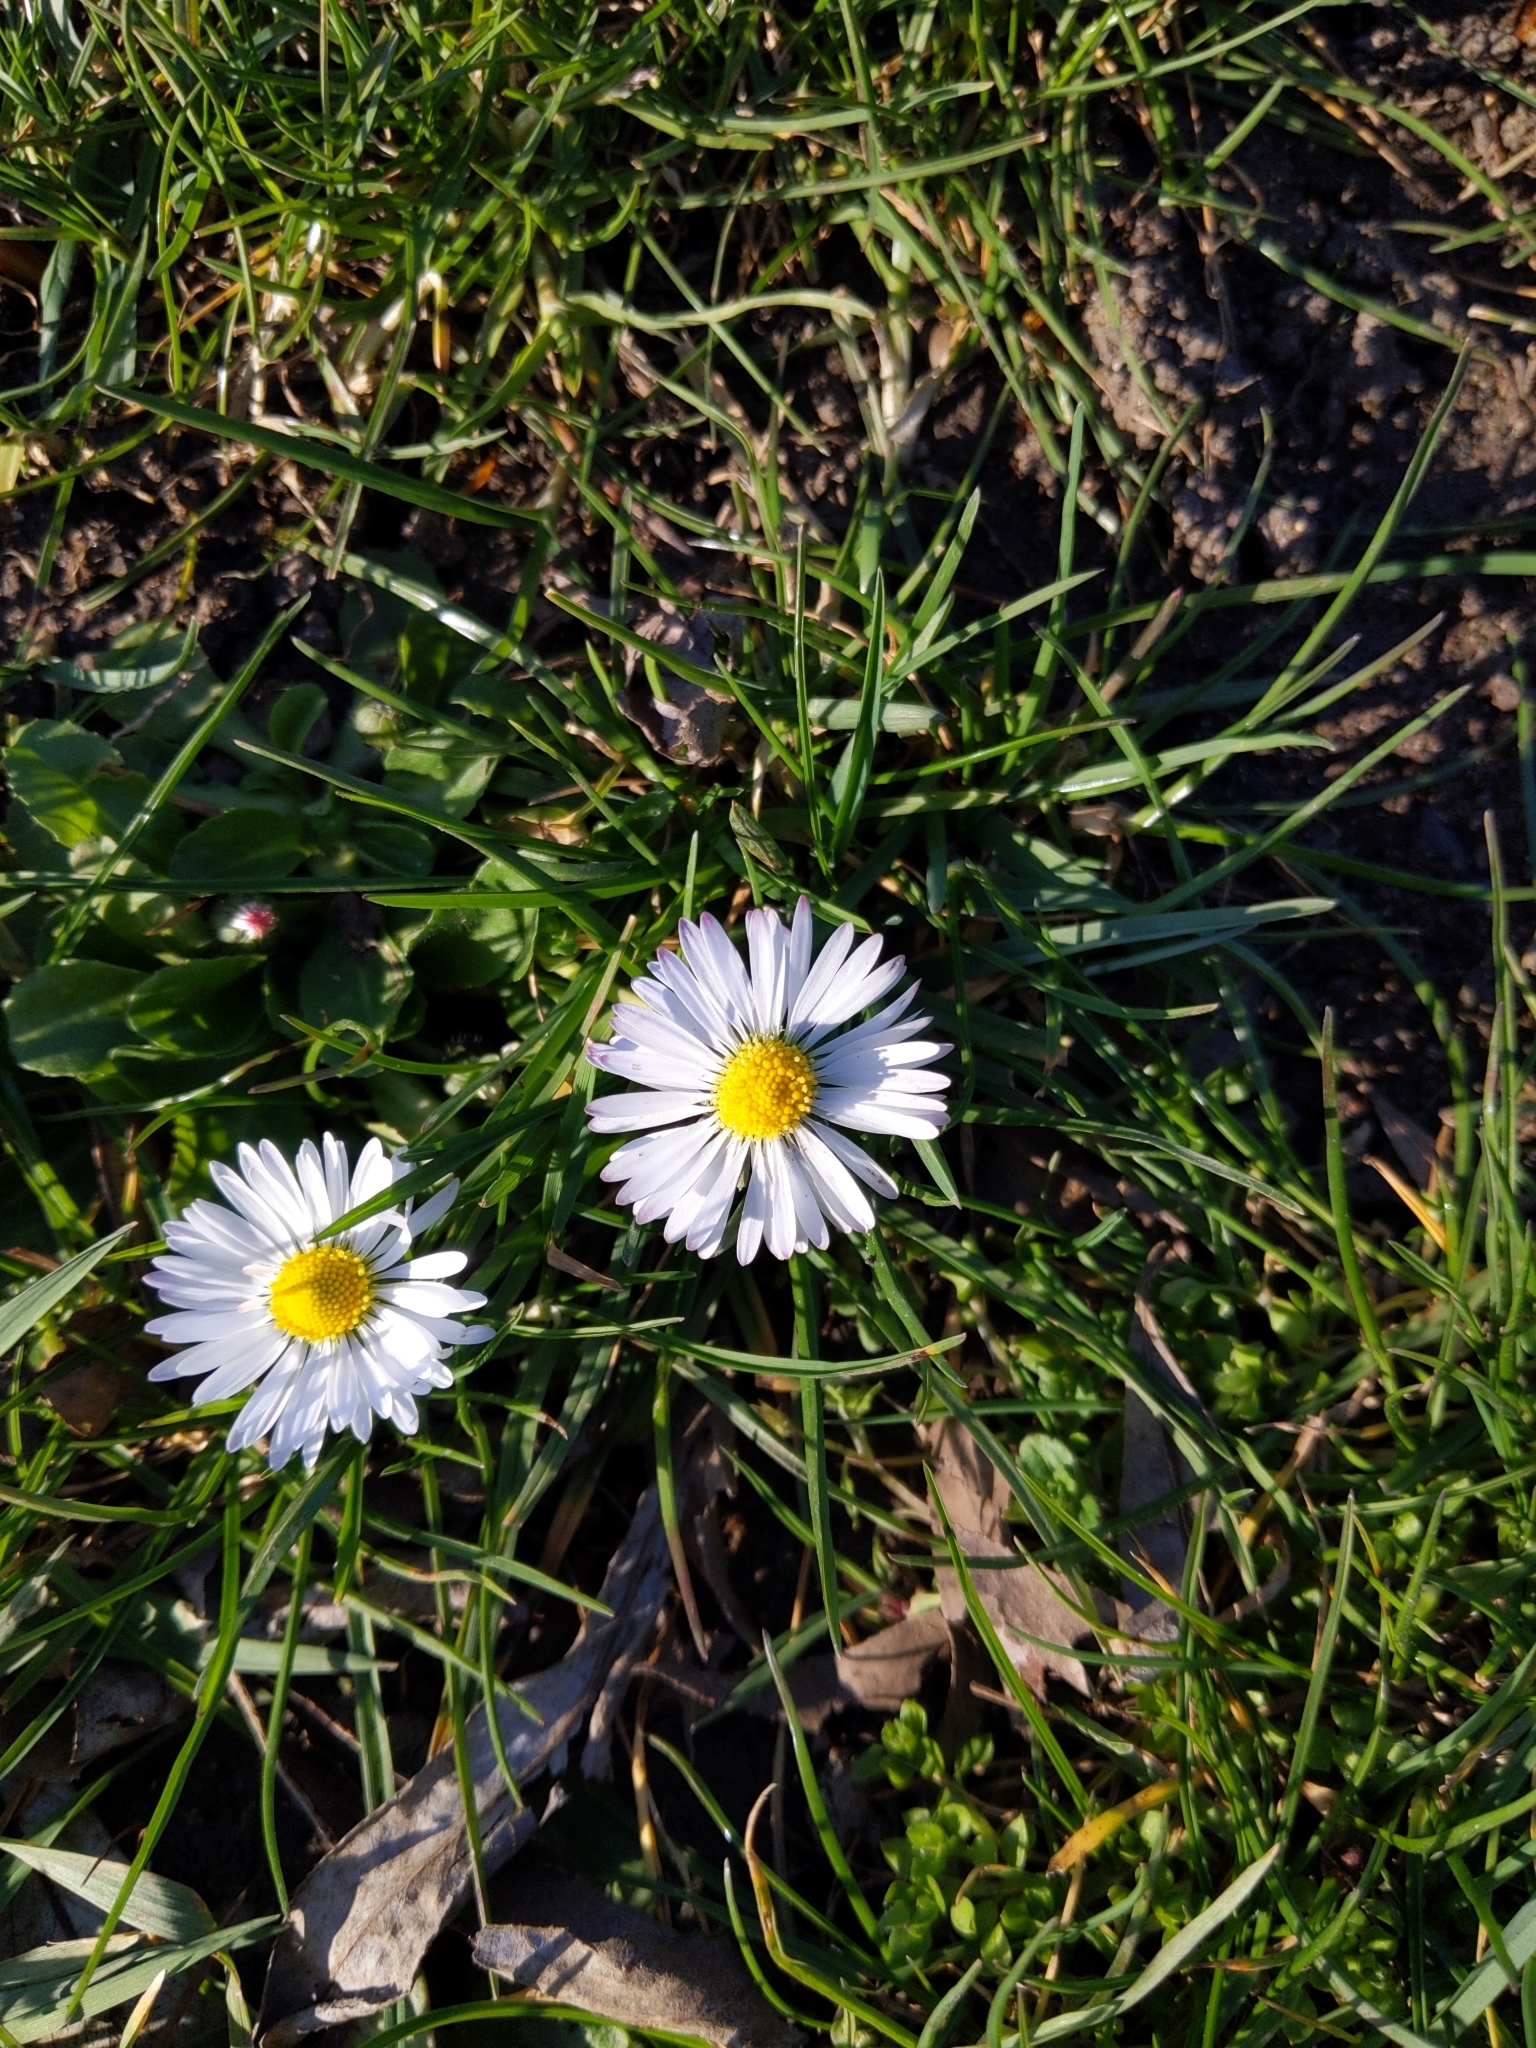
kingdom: Plantae
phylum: Tracheophyta
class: Magnoliopsida
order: Asterales
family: Asteraceae
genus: Bellis
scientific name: Bellis perennis
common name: Lawndaisy
